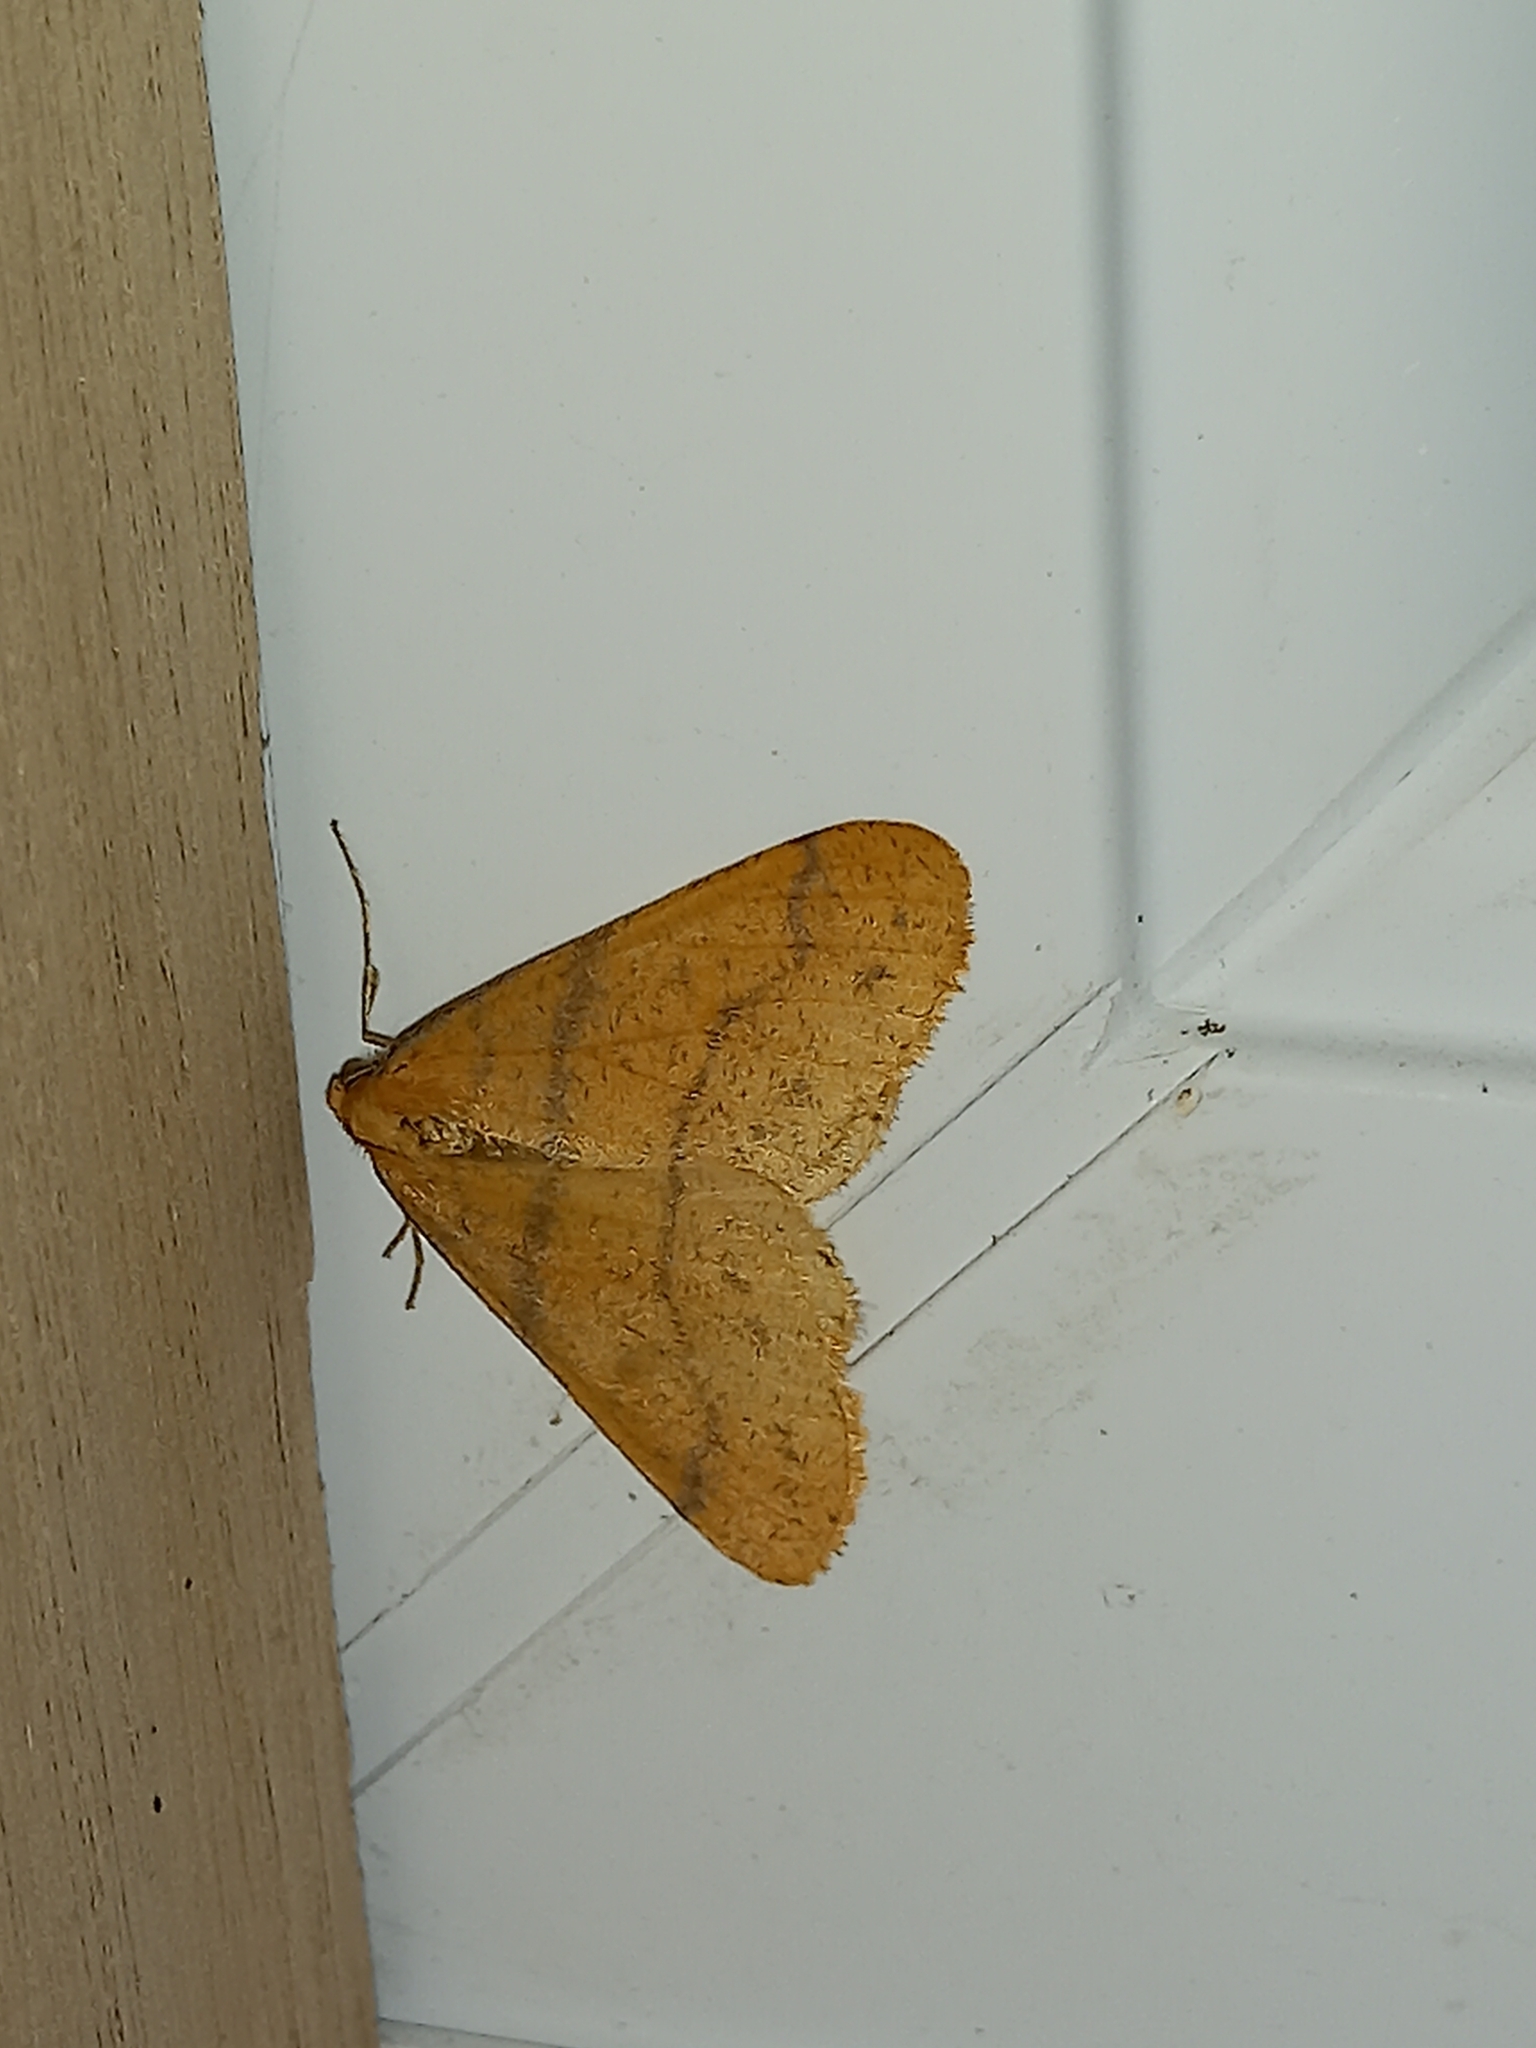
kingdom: Animalia
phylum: Arthropoda
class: Insecta
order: Lepidoptera
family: Geometridae
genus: Agriopis
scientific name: Agriopis aurantiaria
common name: Scarce umber
